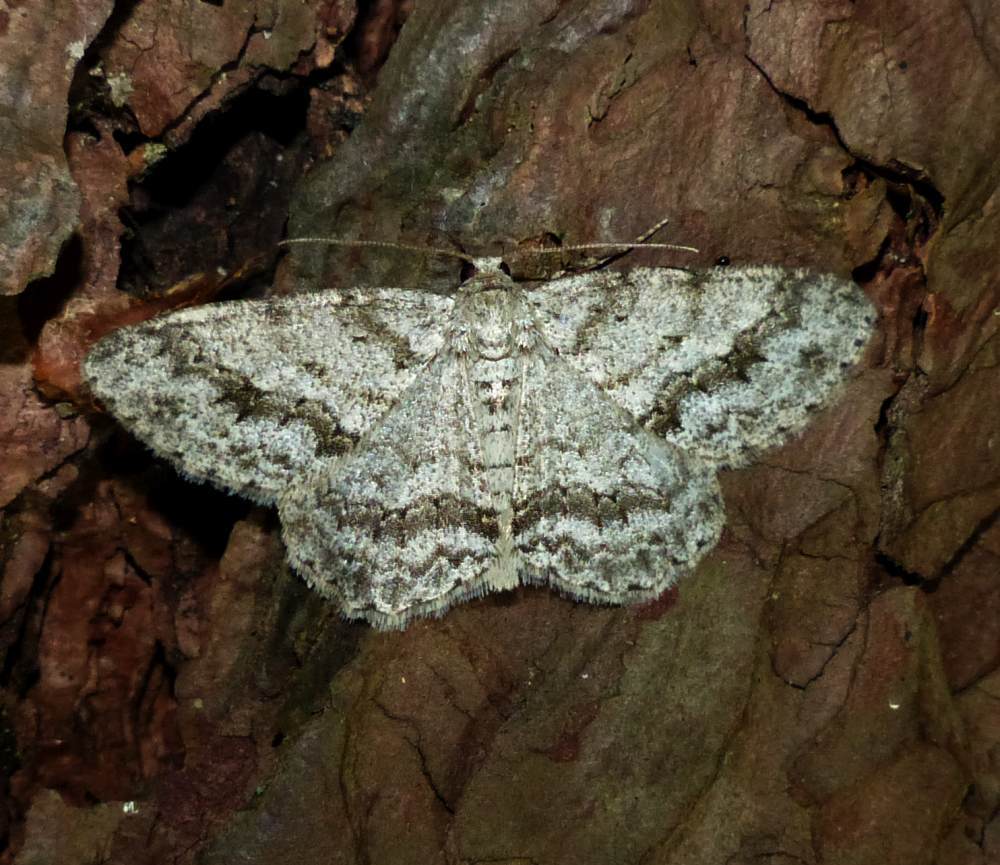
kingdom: Animalia
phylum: Arthropoda
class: Insecta
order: Lepidoptera
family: Geometridae
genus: Ectropis
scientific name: Ectropis crepuscularia
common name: Engrailed
